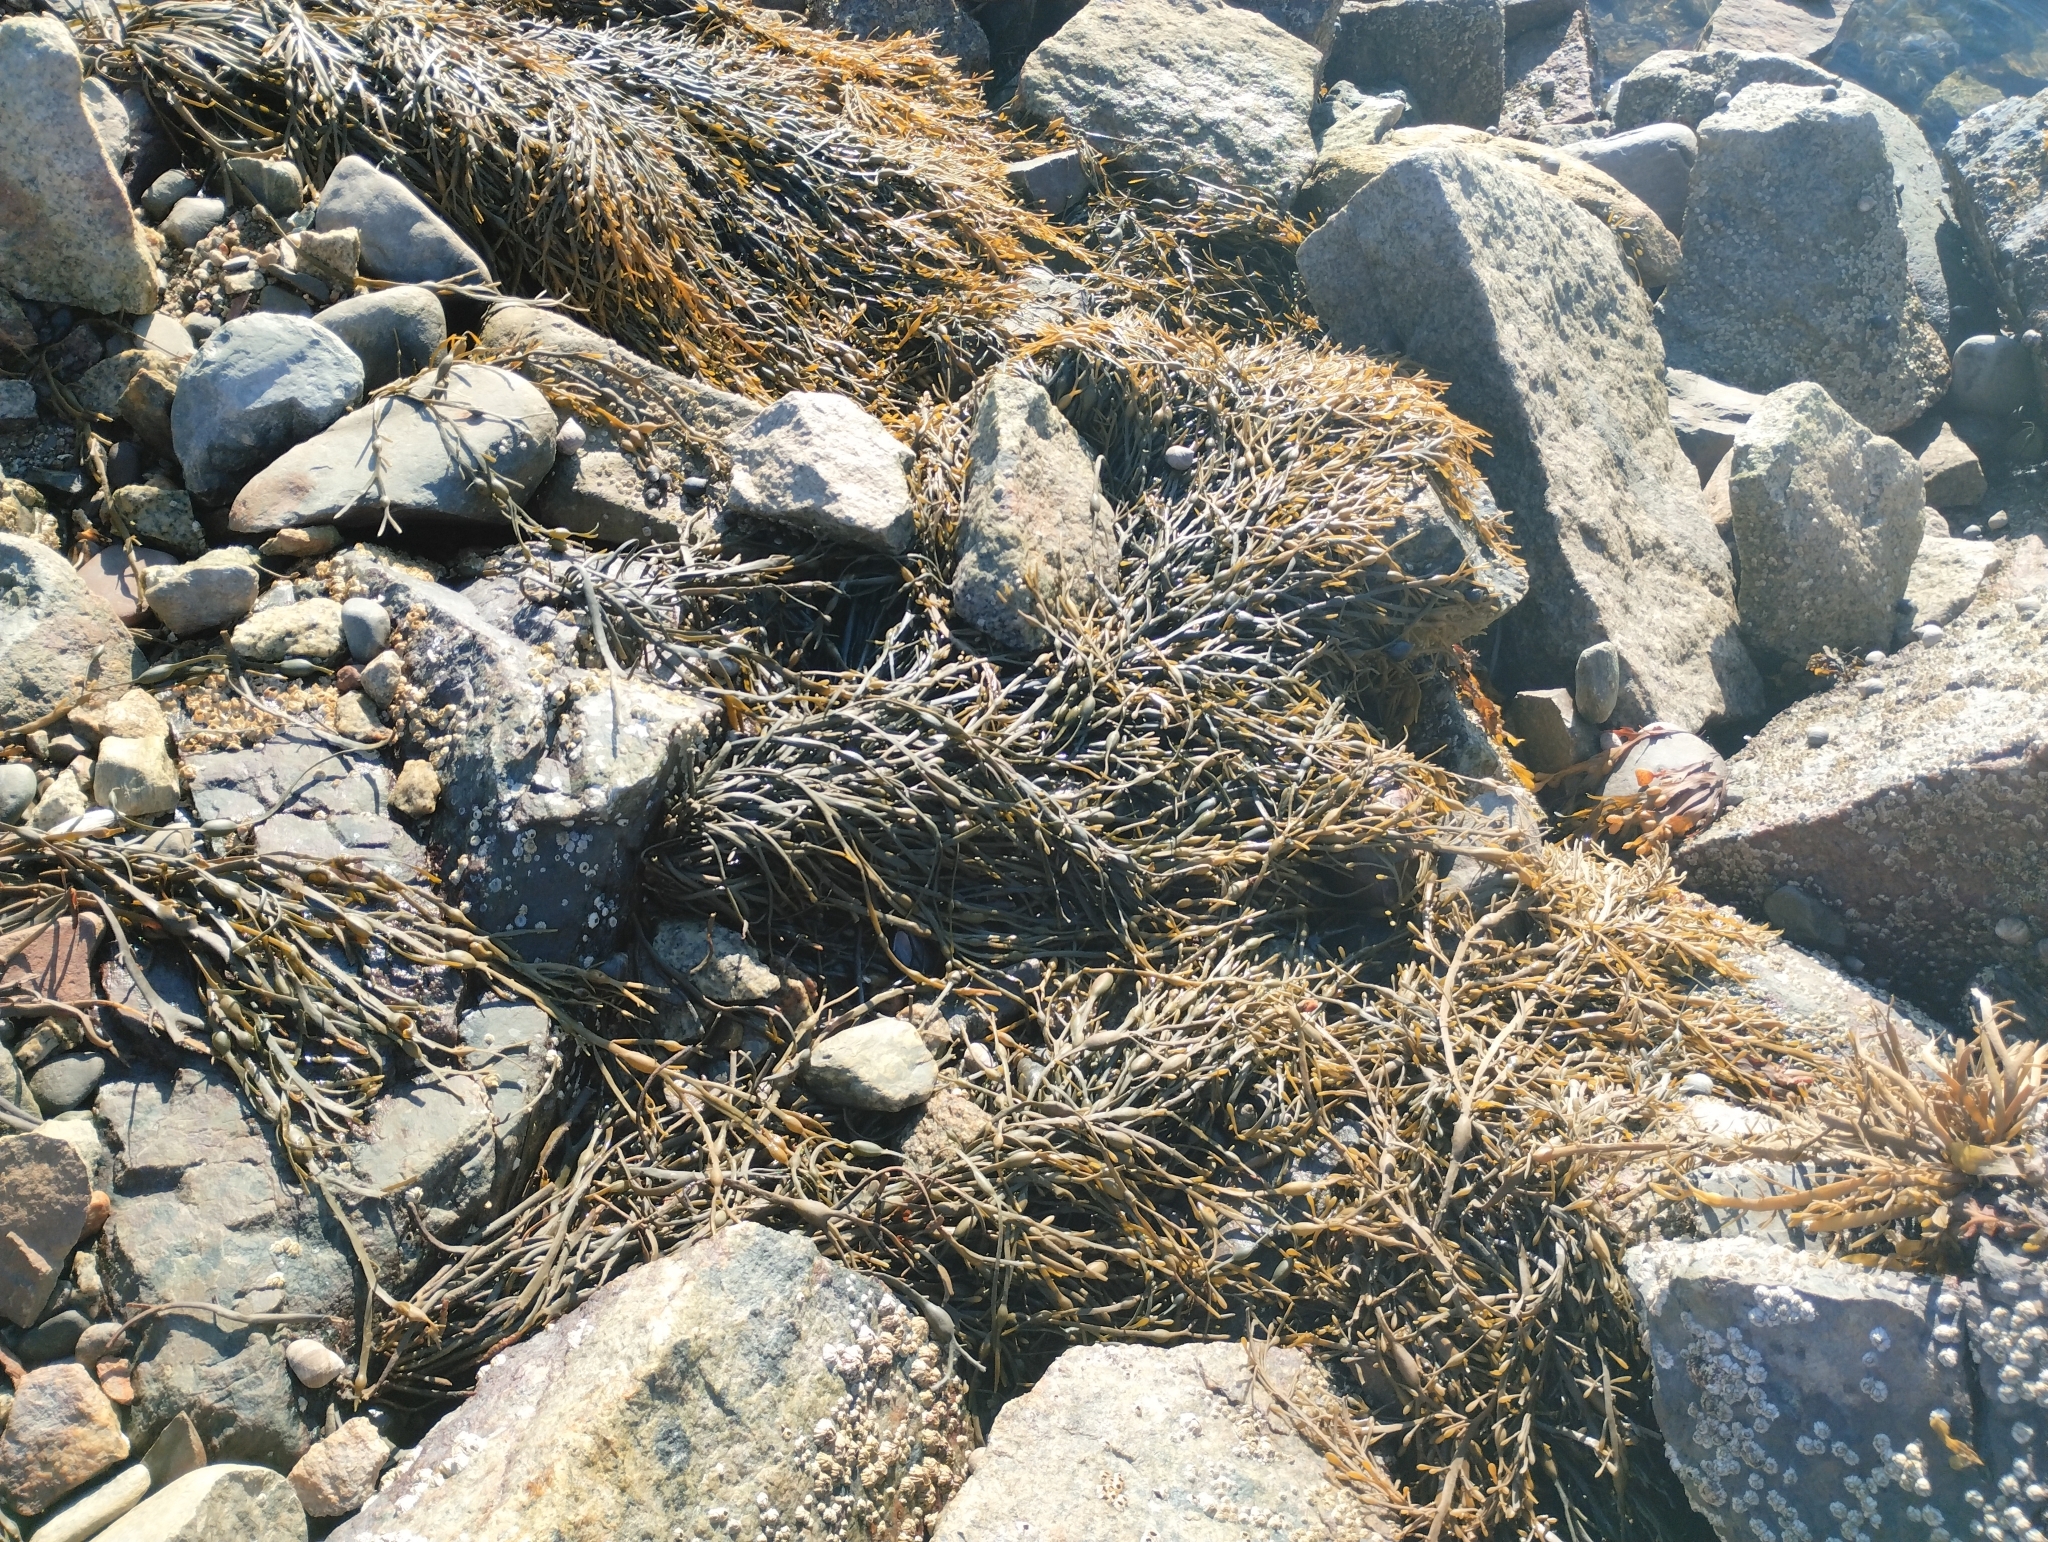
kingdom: Chromista
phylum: Ochrophyta
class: Phaeophyceae
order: Fucales
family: Fucaceae
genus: Ascophyllum
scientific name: Ascophyllum nodosum
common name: Knotted wrack
